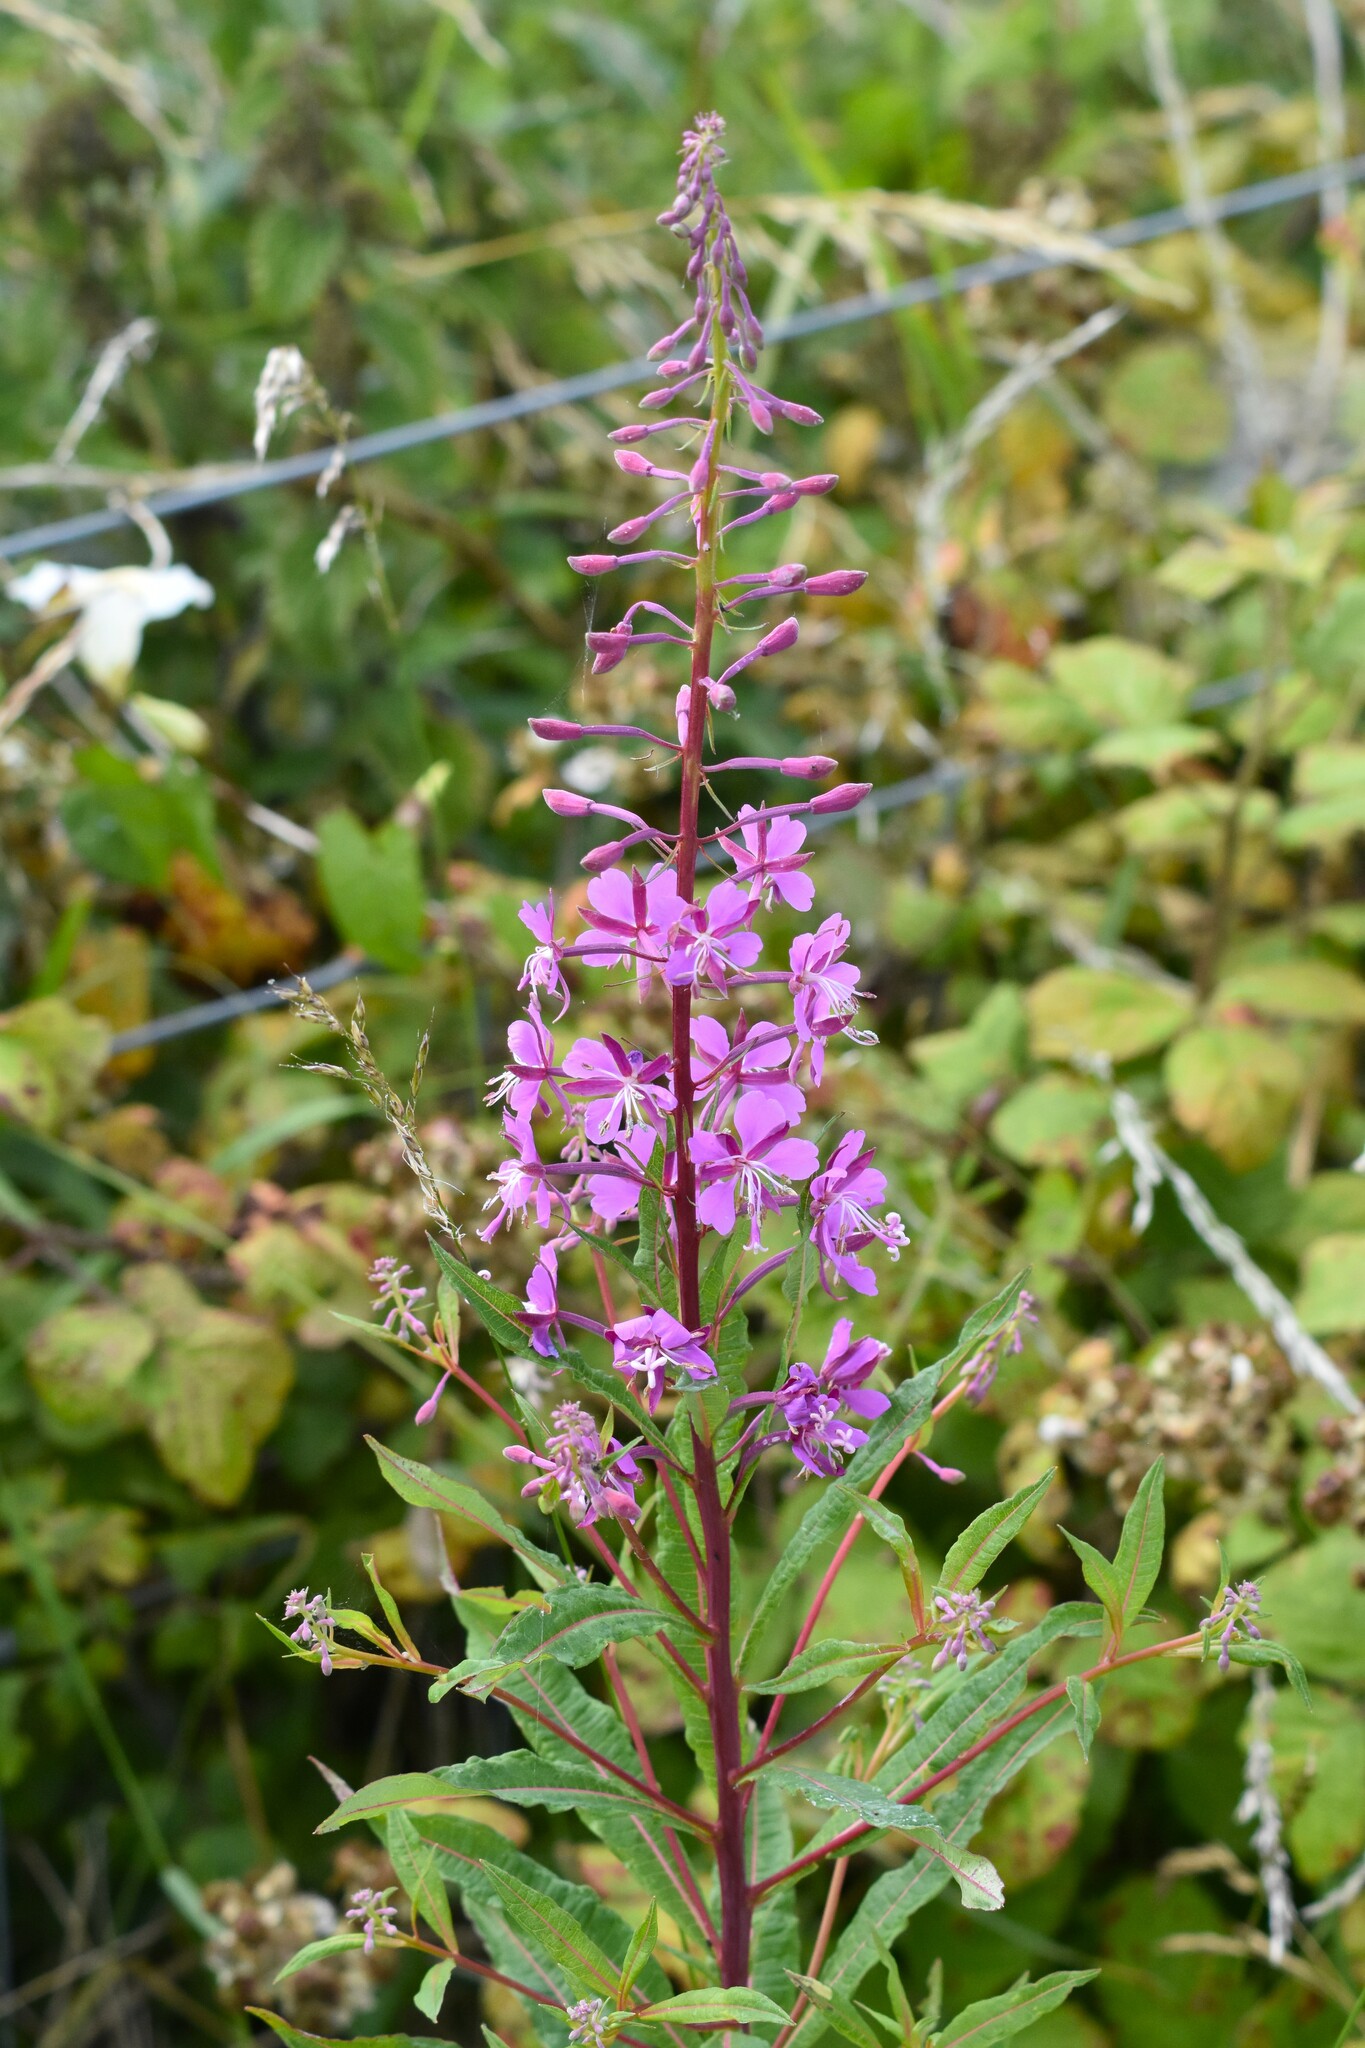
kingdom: Plantae
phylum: Tracheophyta
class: Magnoliopsida
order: Myrtales
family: Onagraceae
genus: Chamaenerion
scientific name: Chamaenerion angustifolium
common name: Fireweed
